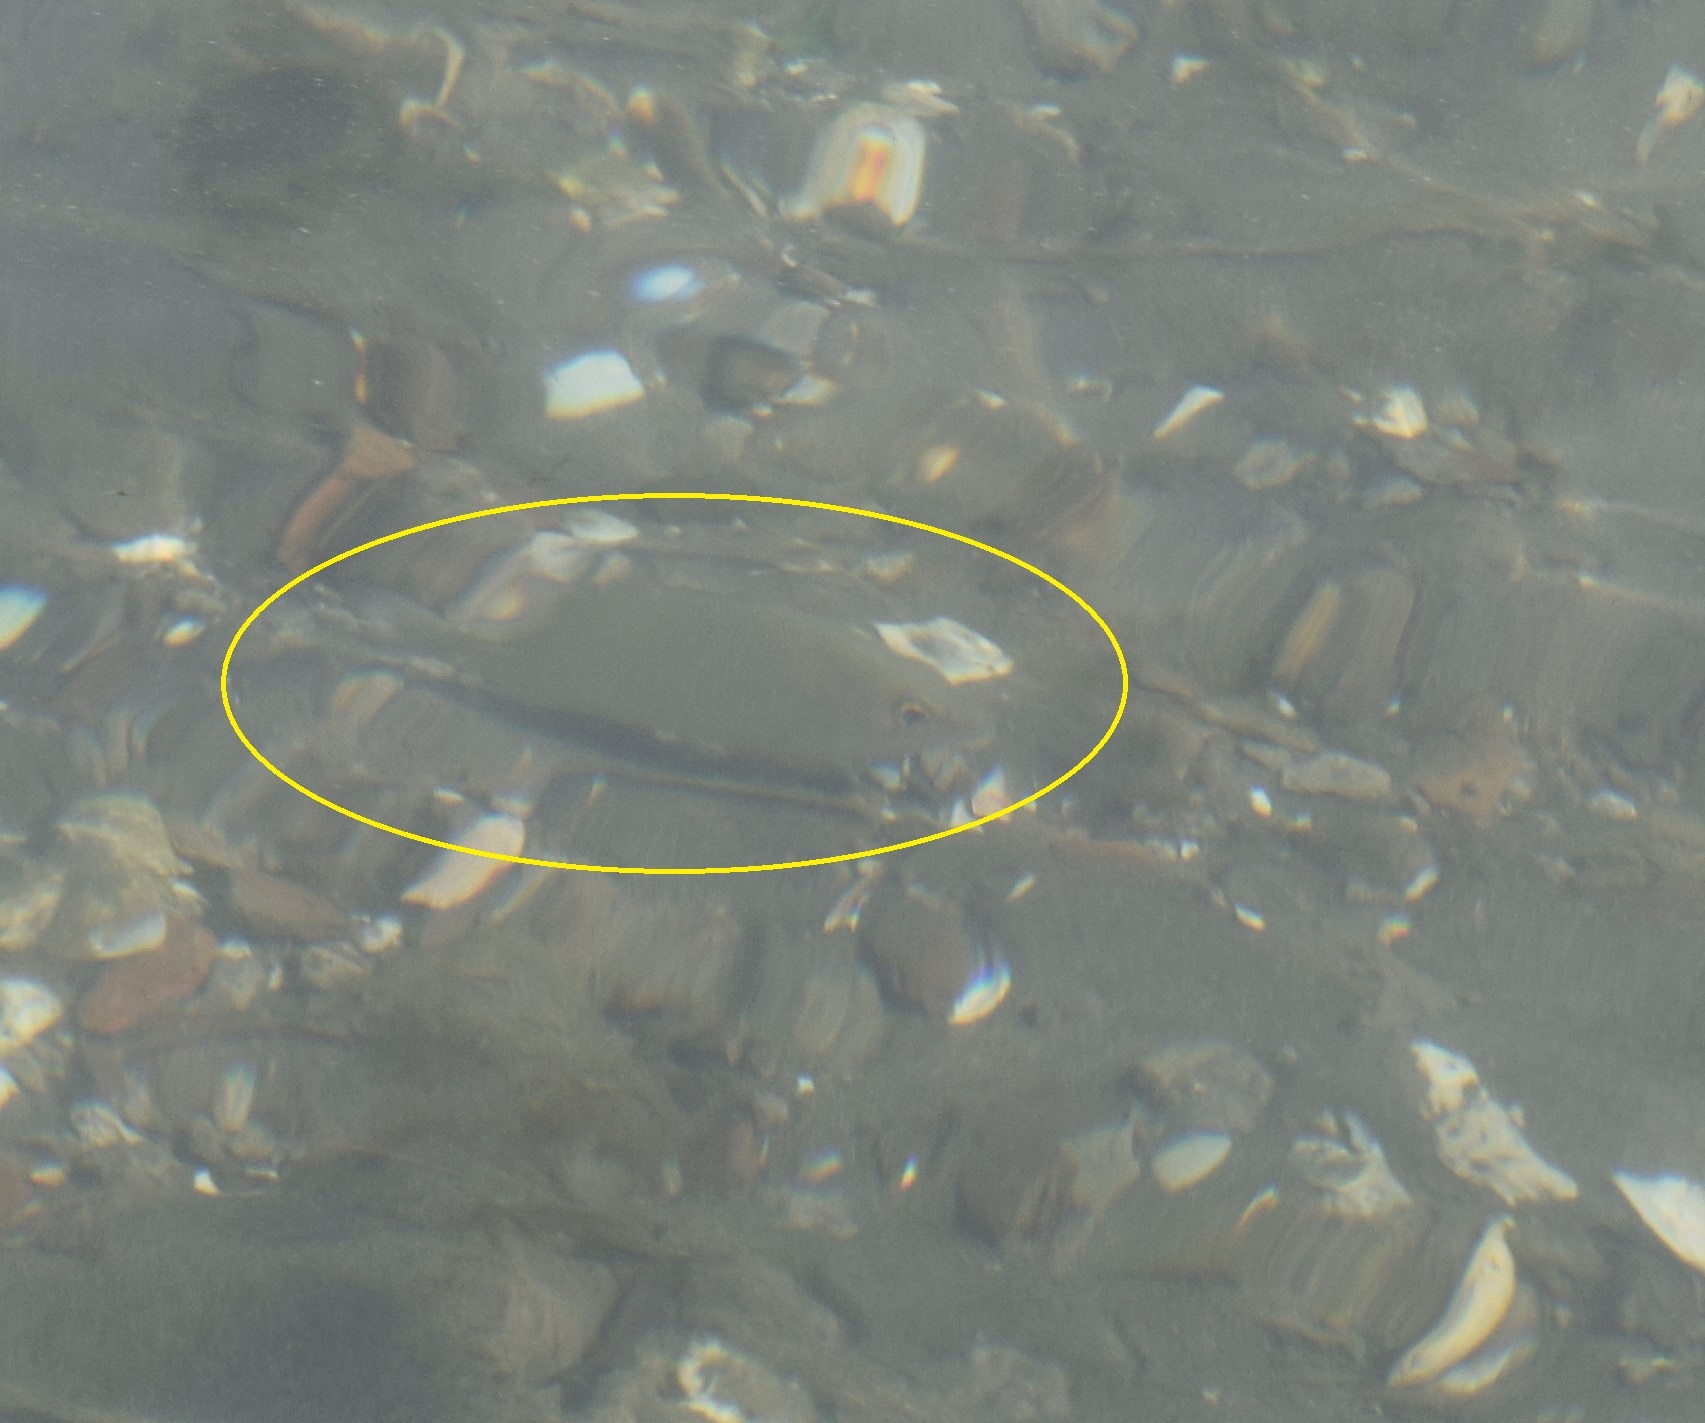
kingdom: Animalia
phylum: Chordata
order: Perciformes
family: Lutjanidae
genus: Lutjanus
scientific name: Lutjanus griseus
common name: Gray snapper
